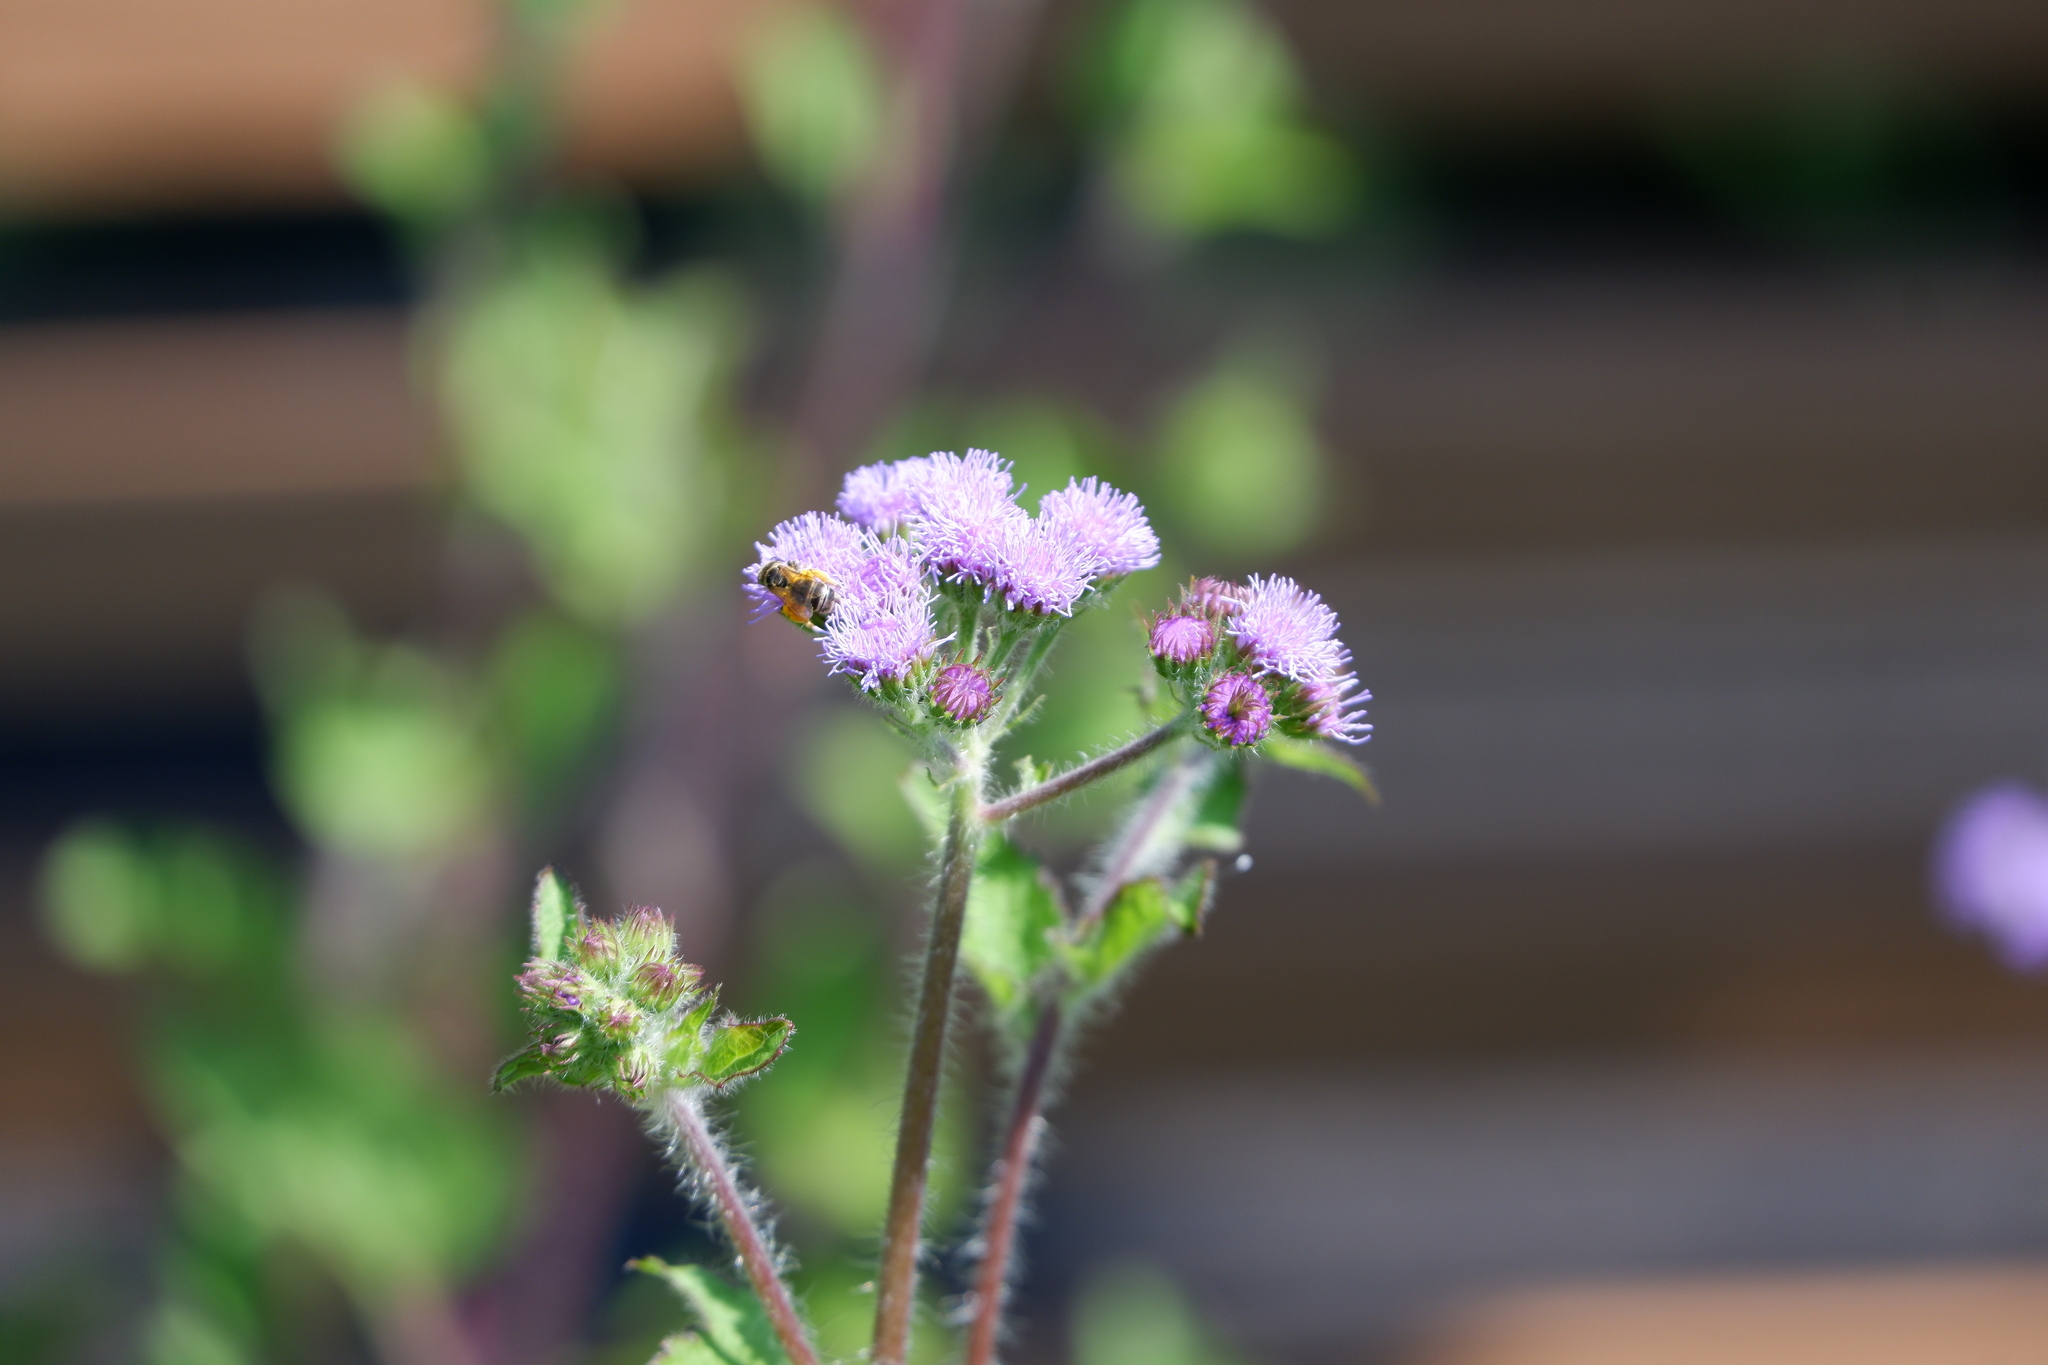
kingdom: Animalia
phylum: Arthropoda
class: Insecta
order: Hymenoptera
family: Halictidae
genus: Halictus
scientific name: Halictus ligatus
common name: Ligated furrow bee
